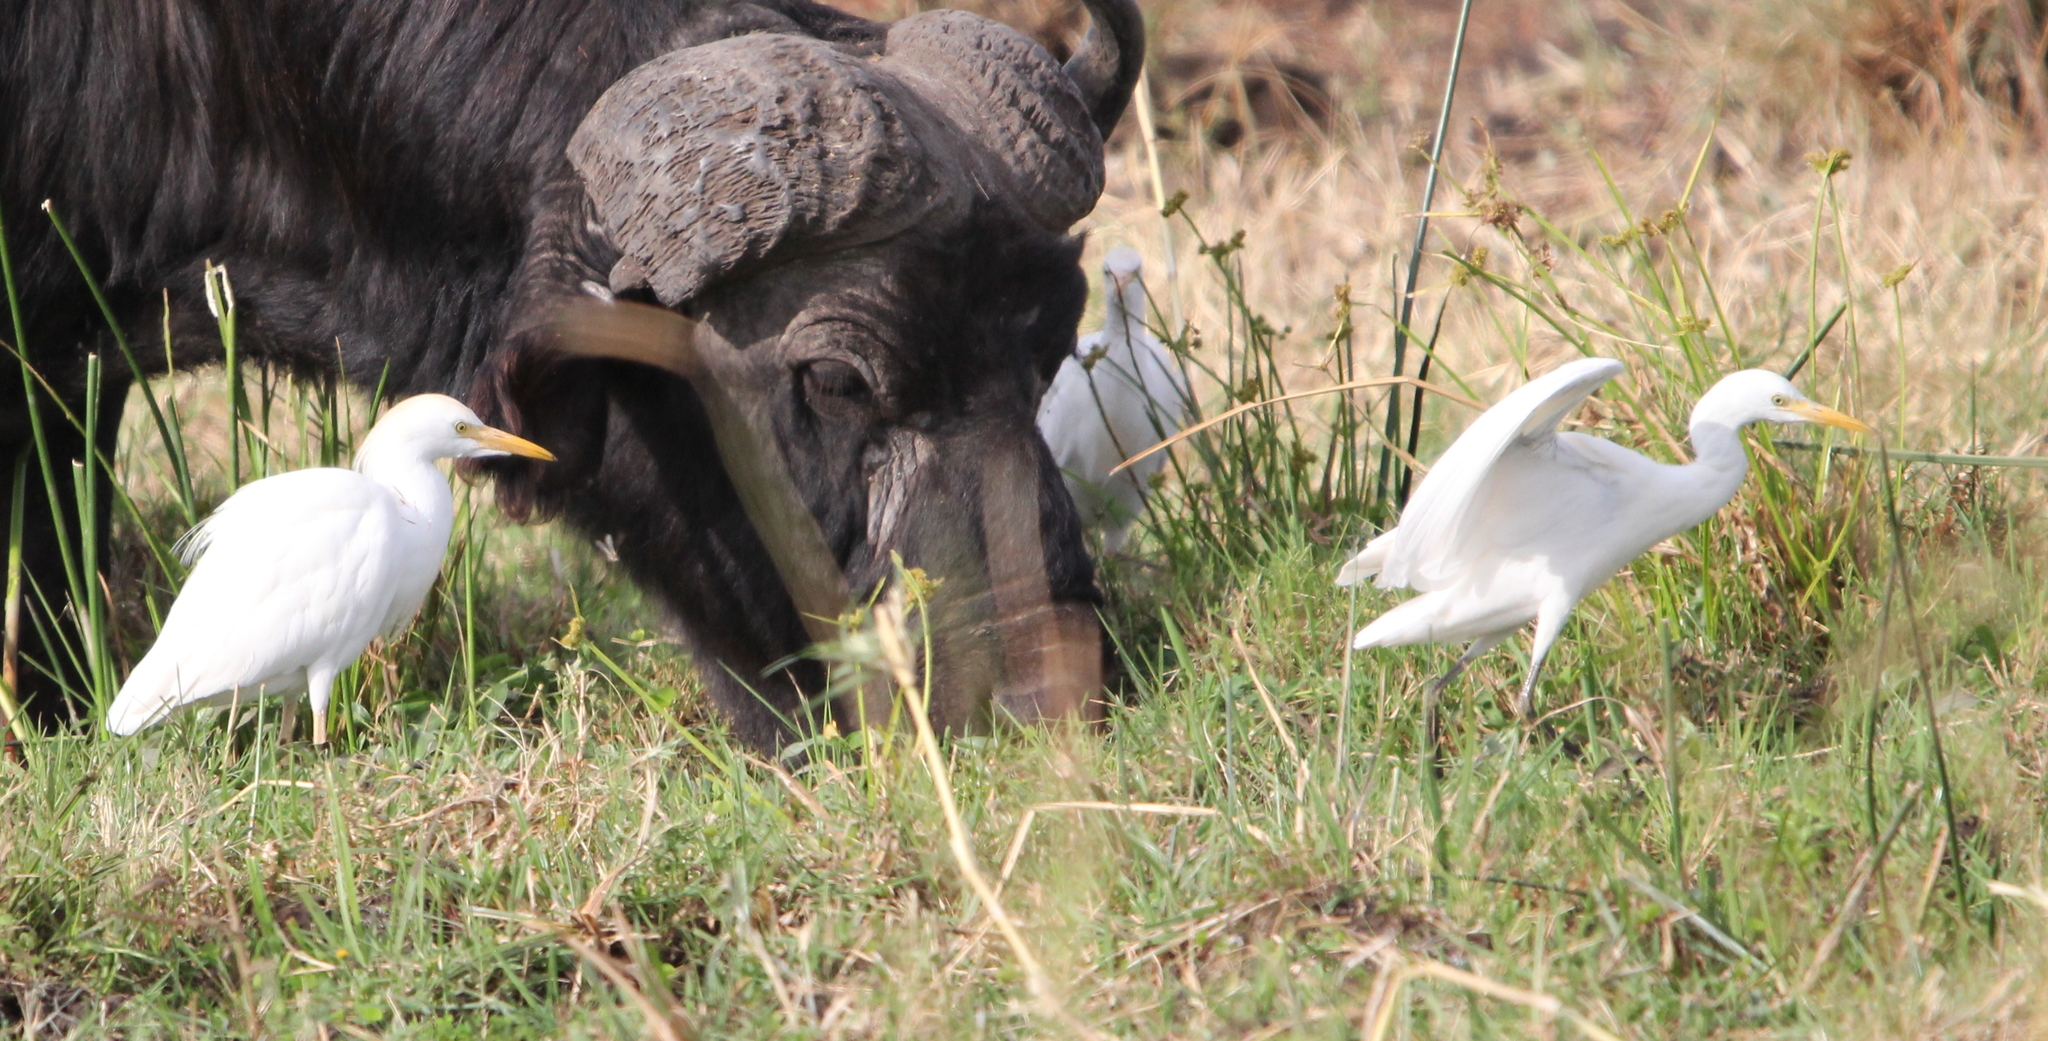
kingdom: Animalia
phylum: Chordata
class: Aves
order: Pelecaniformes
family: Ardeidae
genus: Bubulcus
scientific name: Bubulcus ibis
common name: Cattle egret
